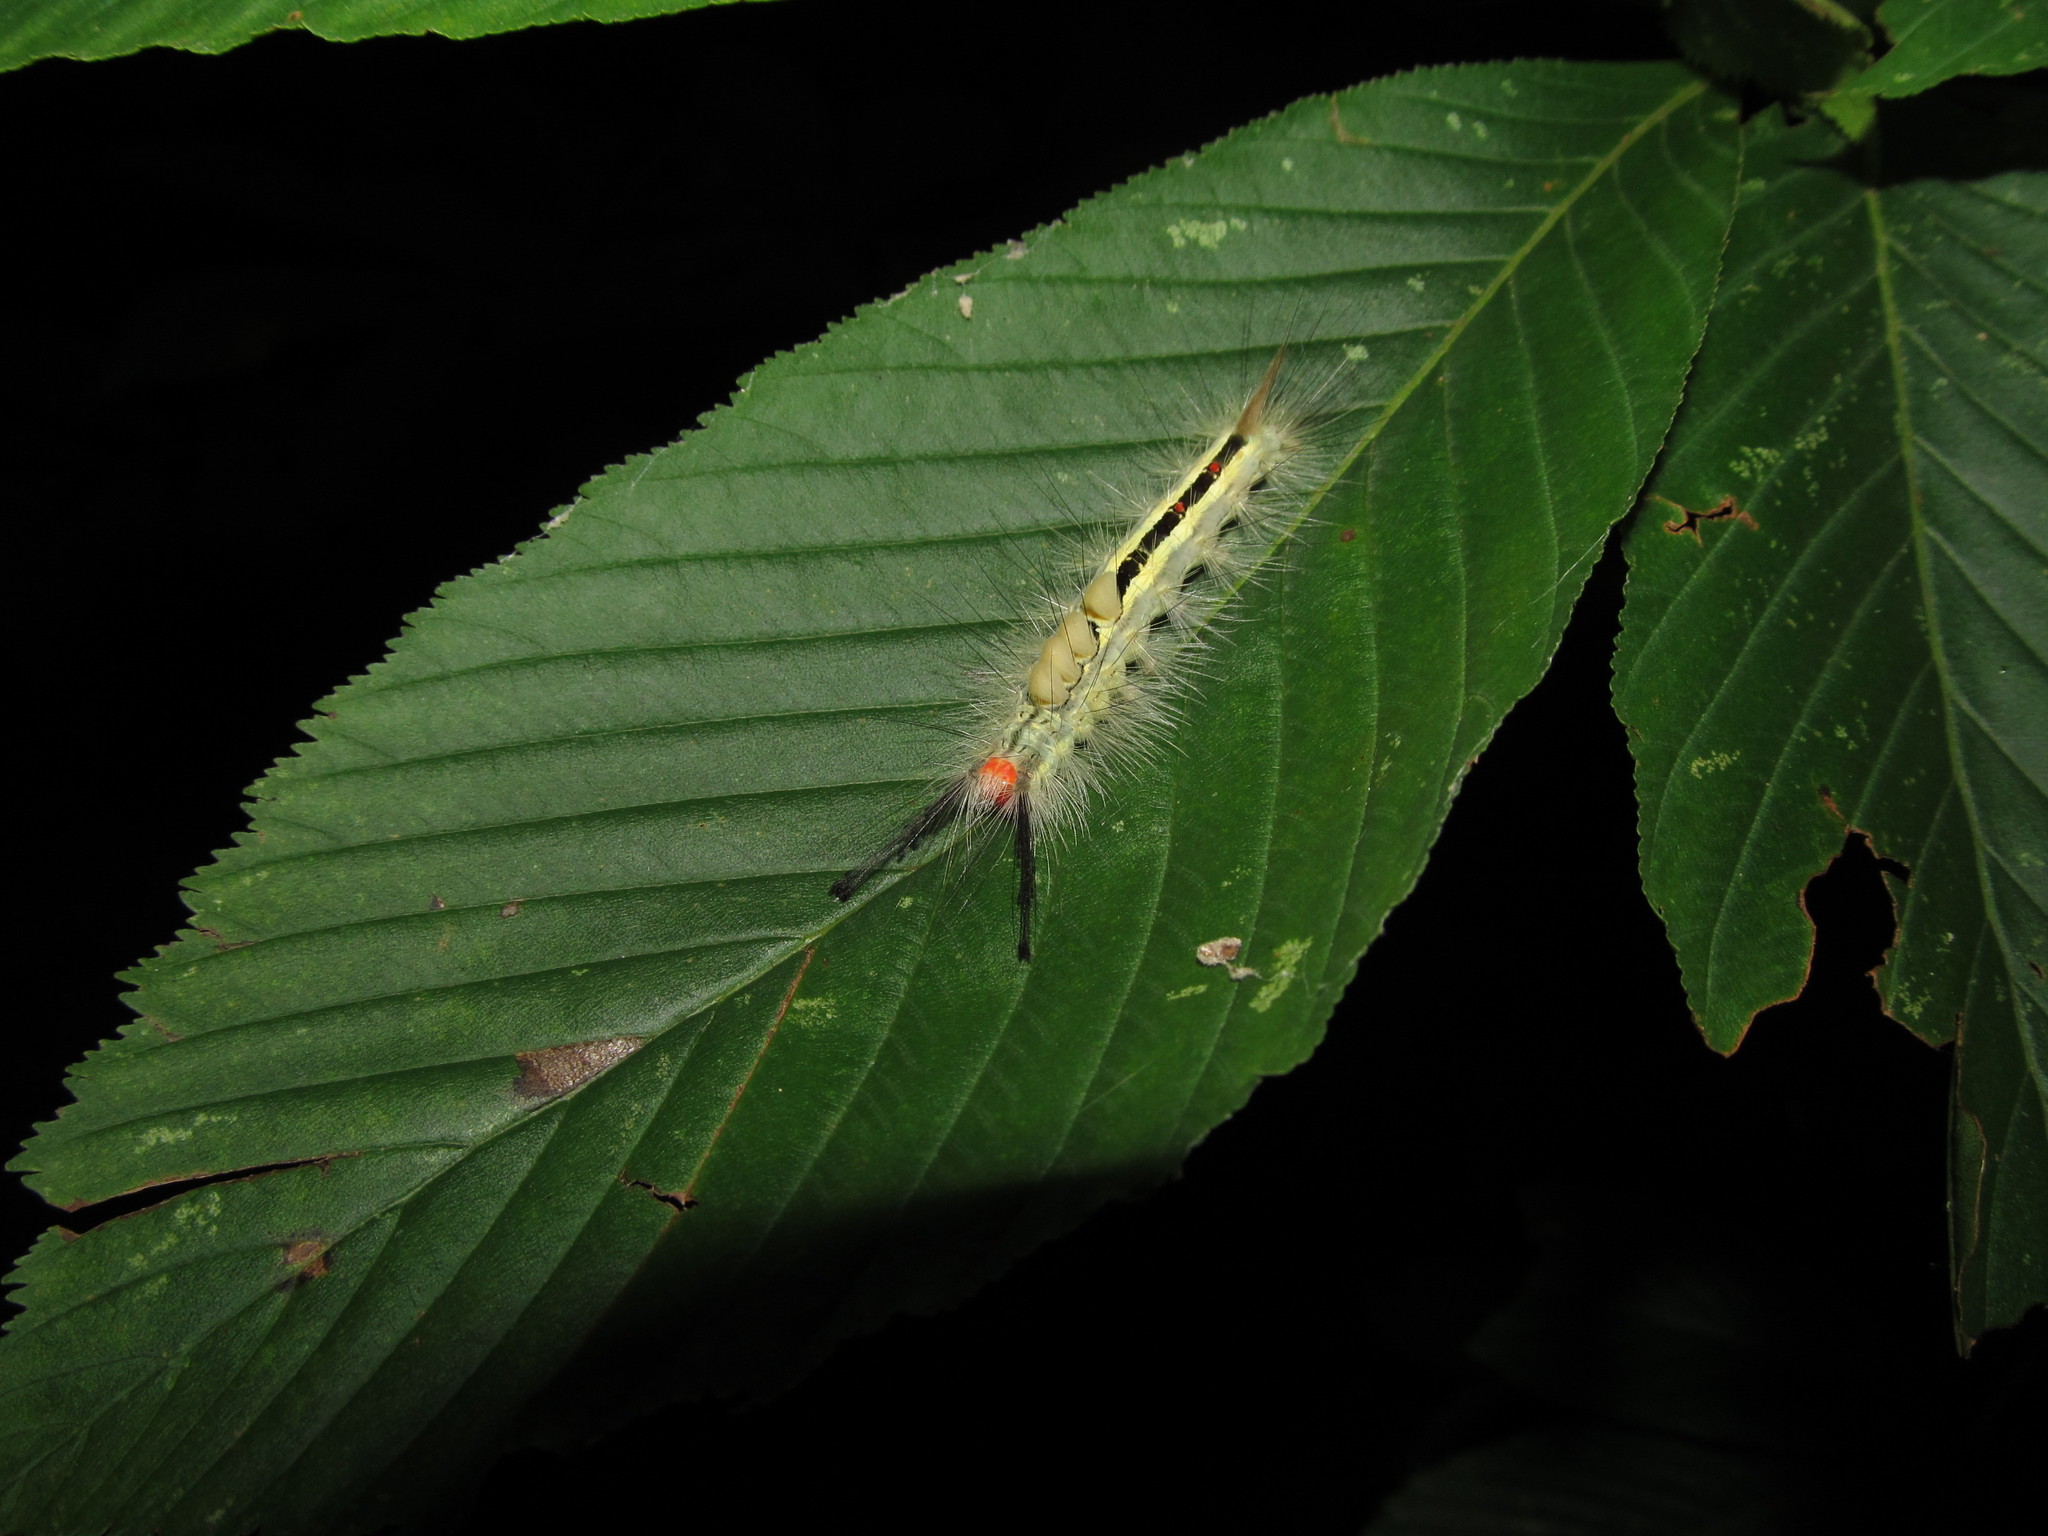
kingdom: Animalia
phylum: Arthropoda
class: Insecta
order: Lepidoptera
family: Erebidae
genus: Orgyia
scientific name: Orgyia leucostigma
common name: White-marked tussock moth
